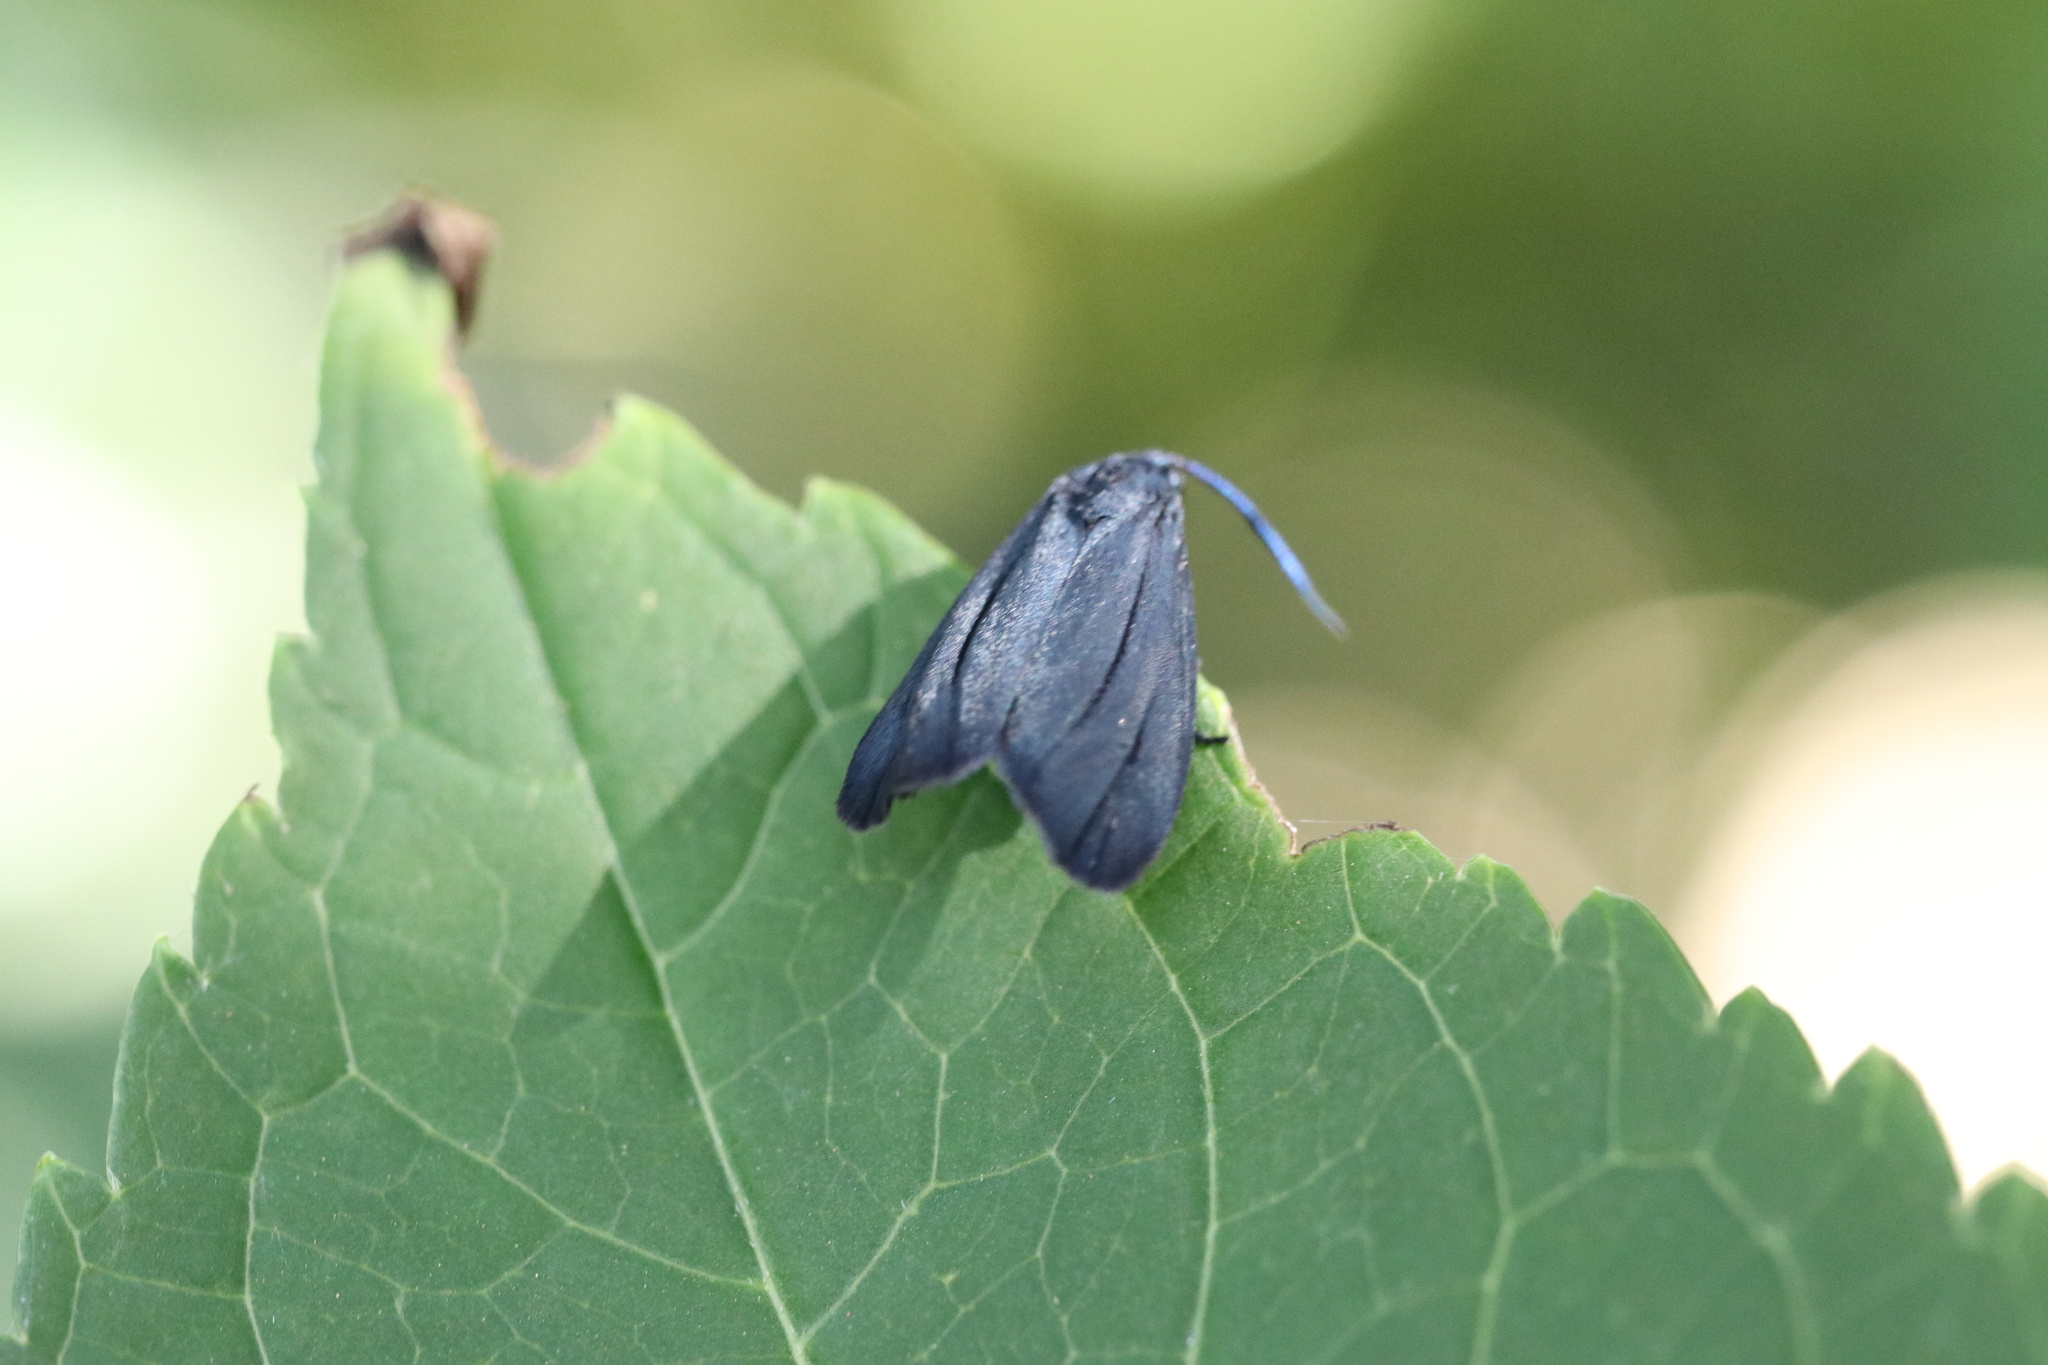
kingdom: Animalia
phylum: Arthropoda
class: Insecta
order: Lepidoptera
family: Zygaenidae
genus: Malamblia
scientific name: Malamblia
